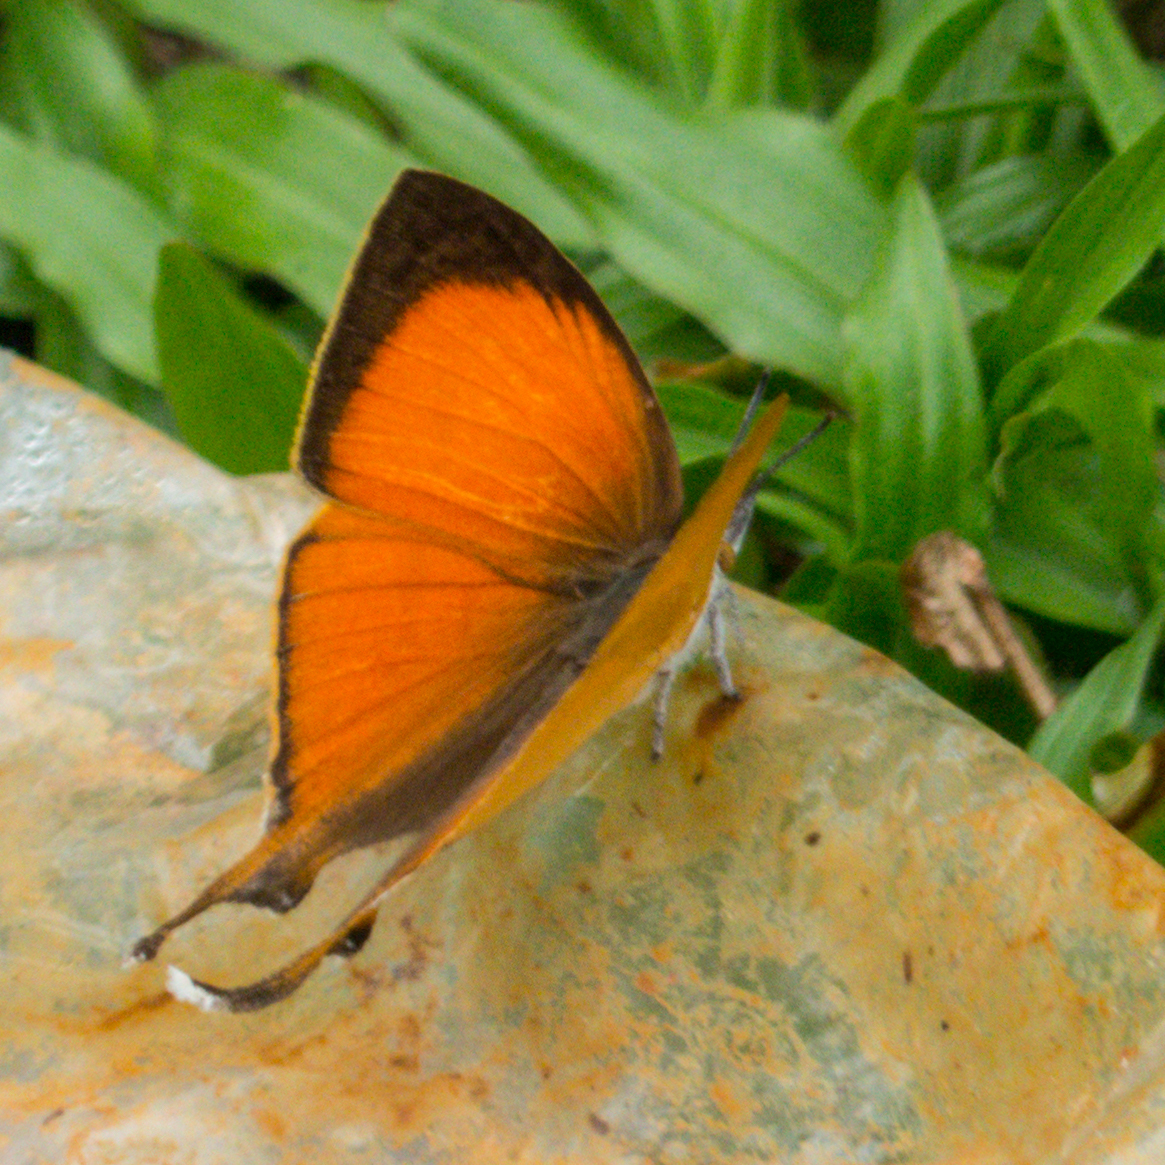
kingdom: Animalia
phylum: Arthropoda
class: Insecta
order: Lepidoptera
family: Lycaenidae
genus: Loxura
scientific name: Loxura cassiopeia
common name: Malayan yamfly
